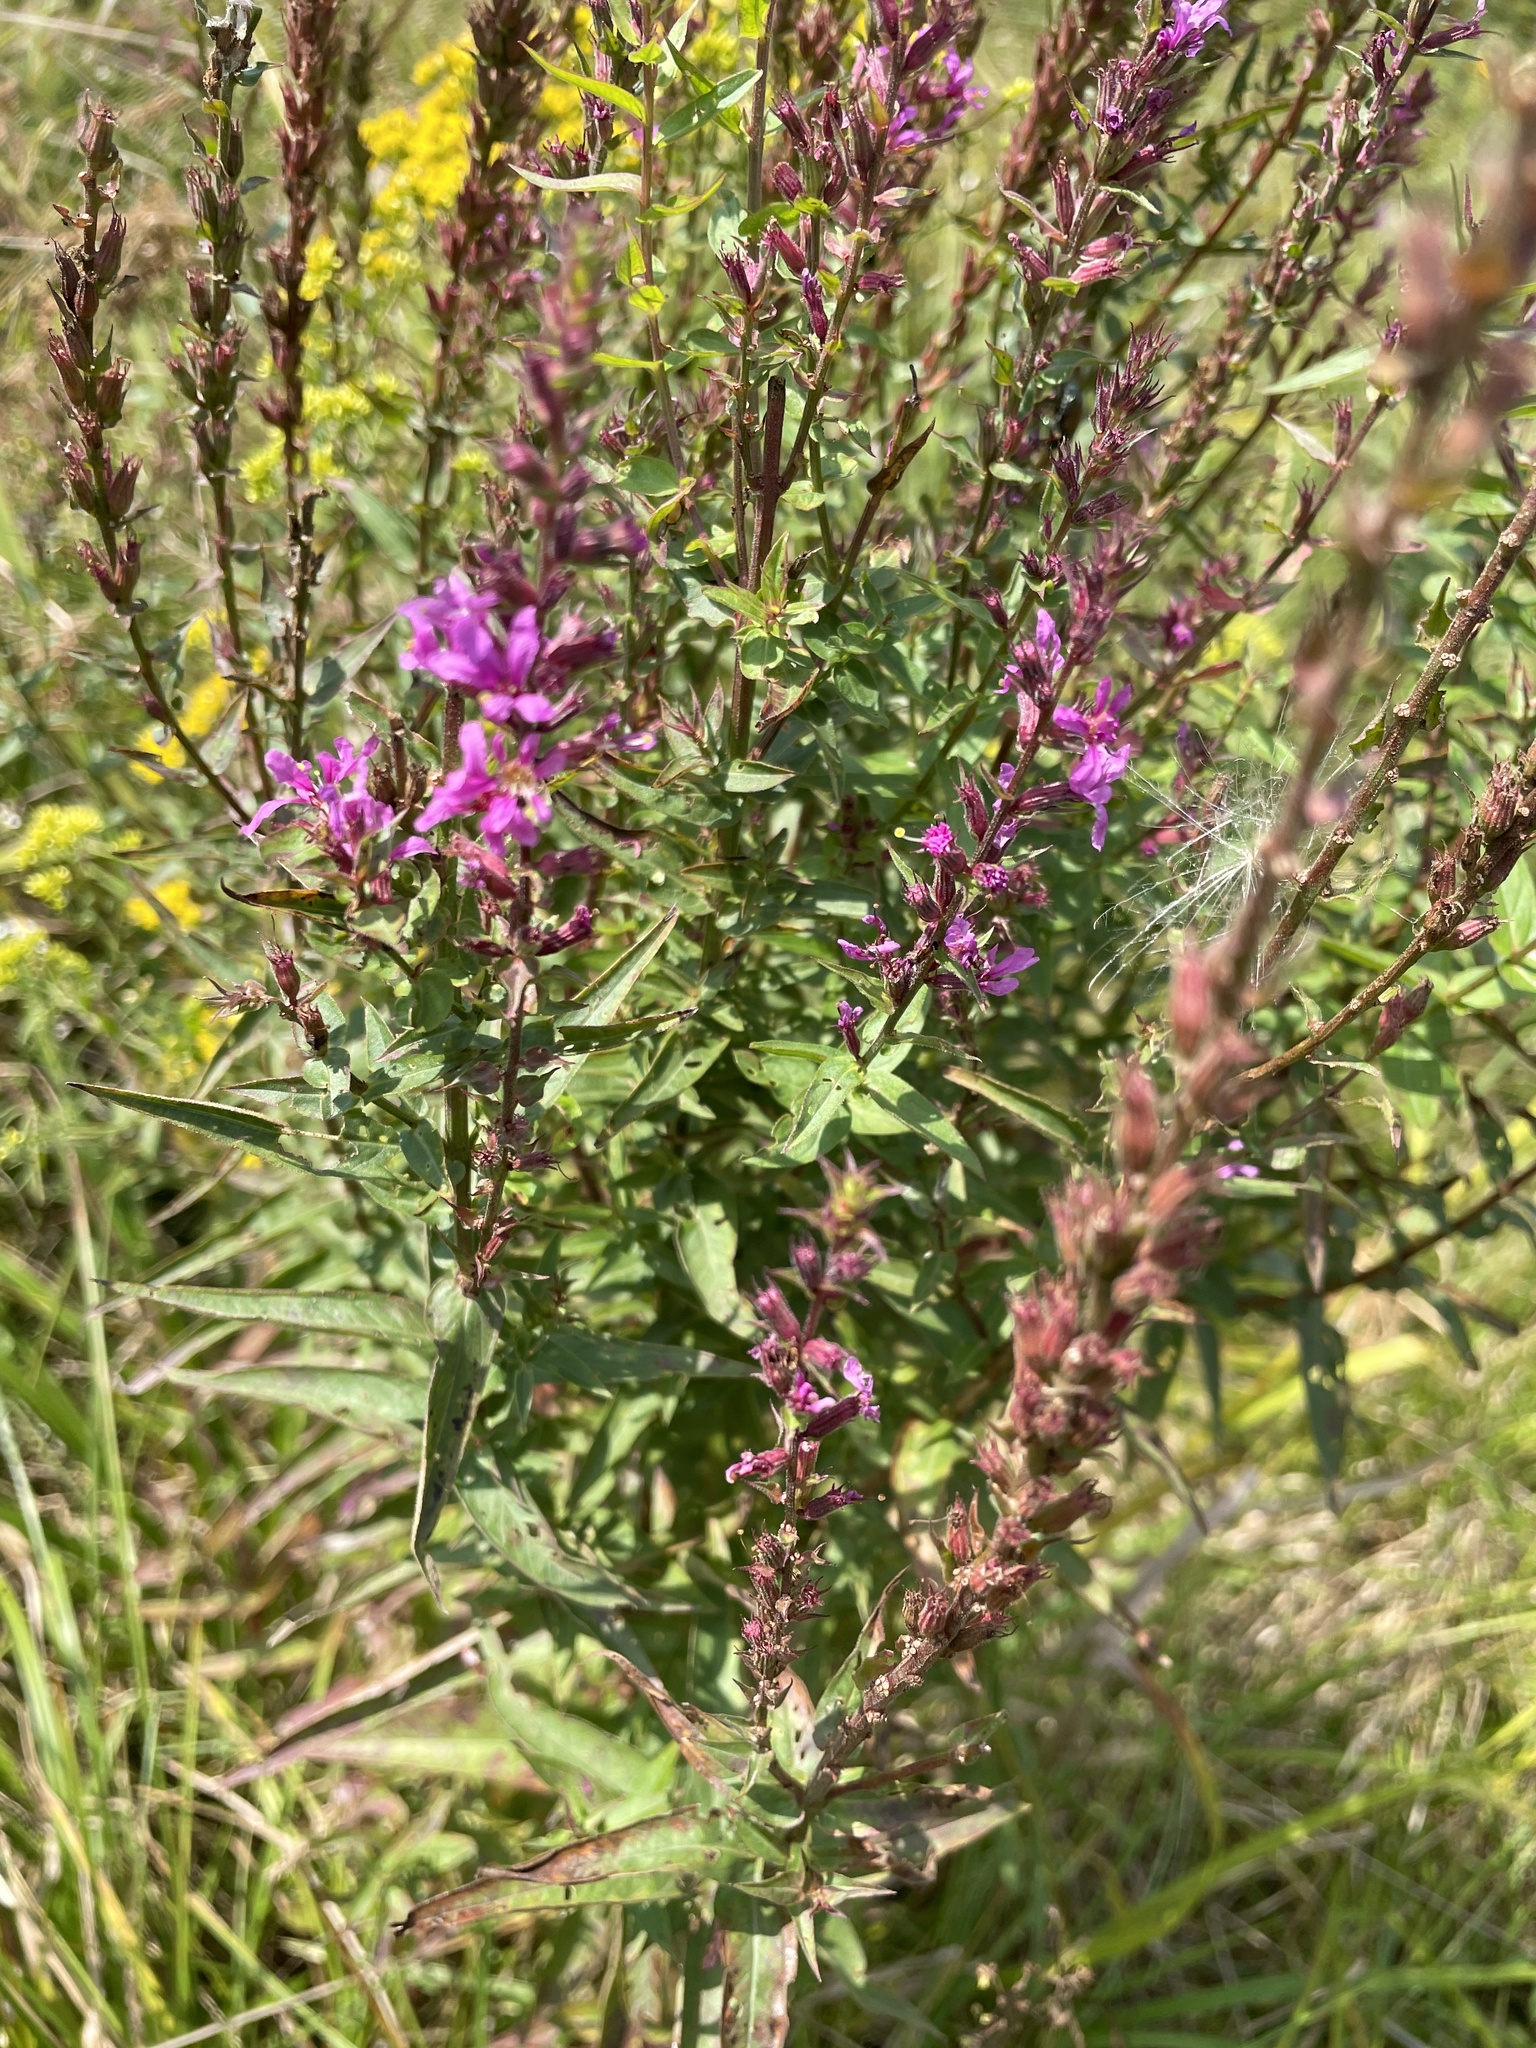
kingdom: Plantae
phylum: Tracheophyta
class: Magnoliopsida
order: Myrtales
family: Lythraceae
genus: Lythrum
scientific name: Lythrum salicaria
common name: Purple loosestrife
